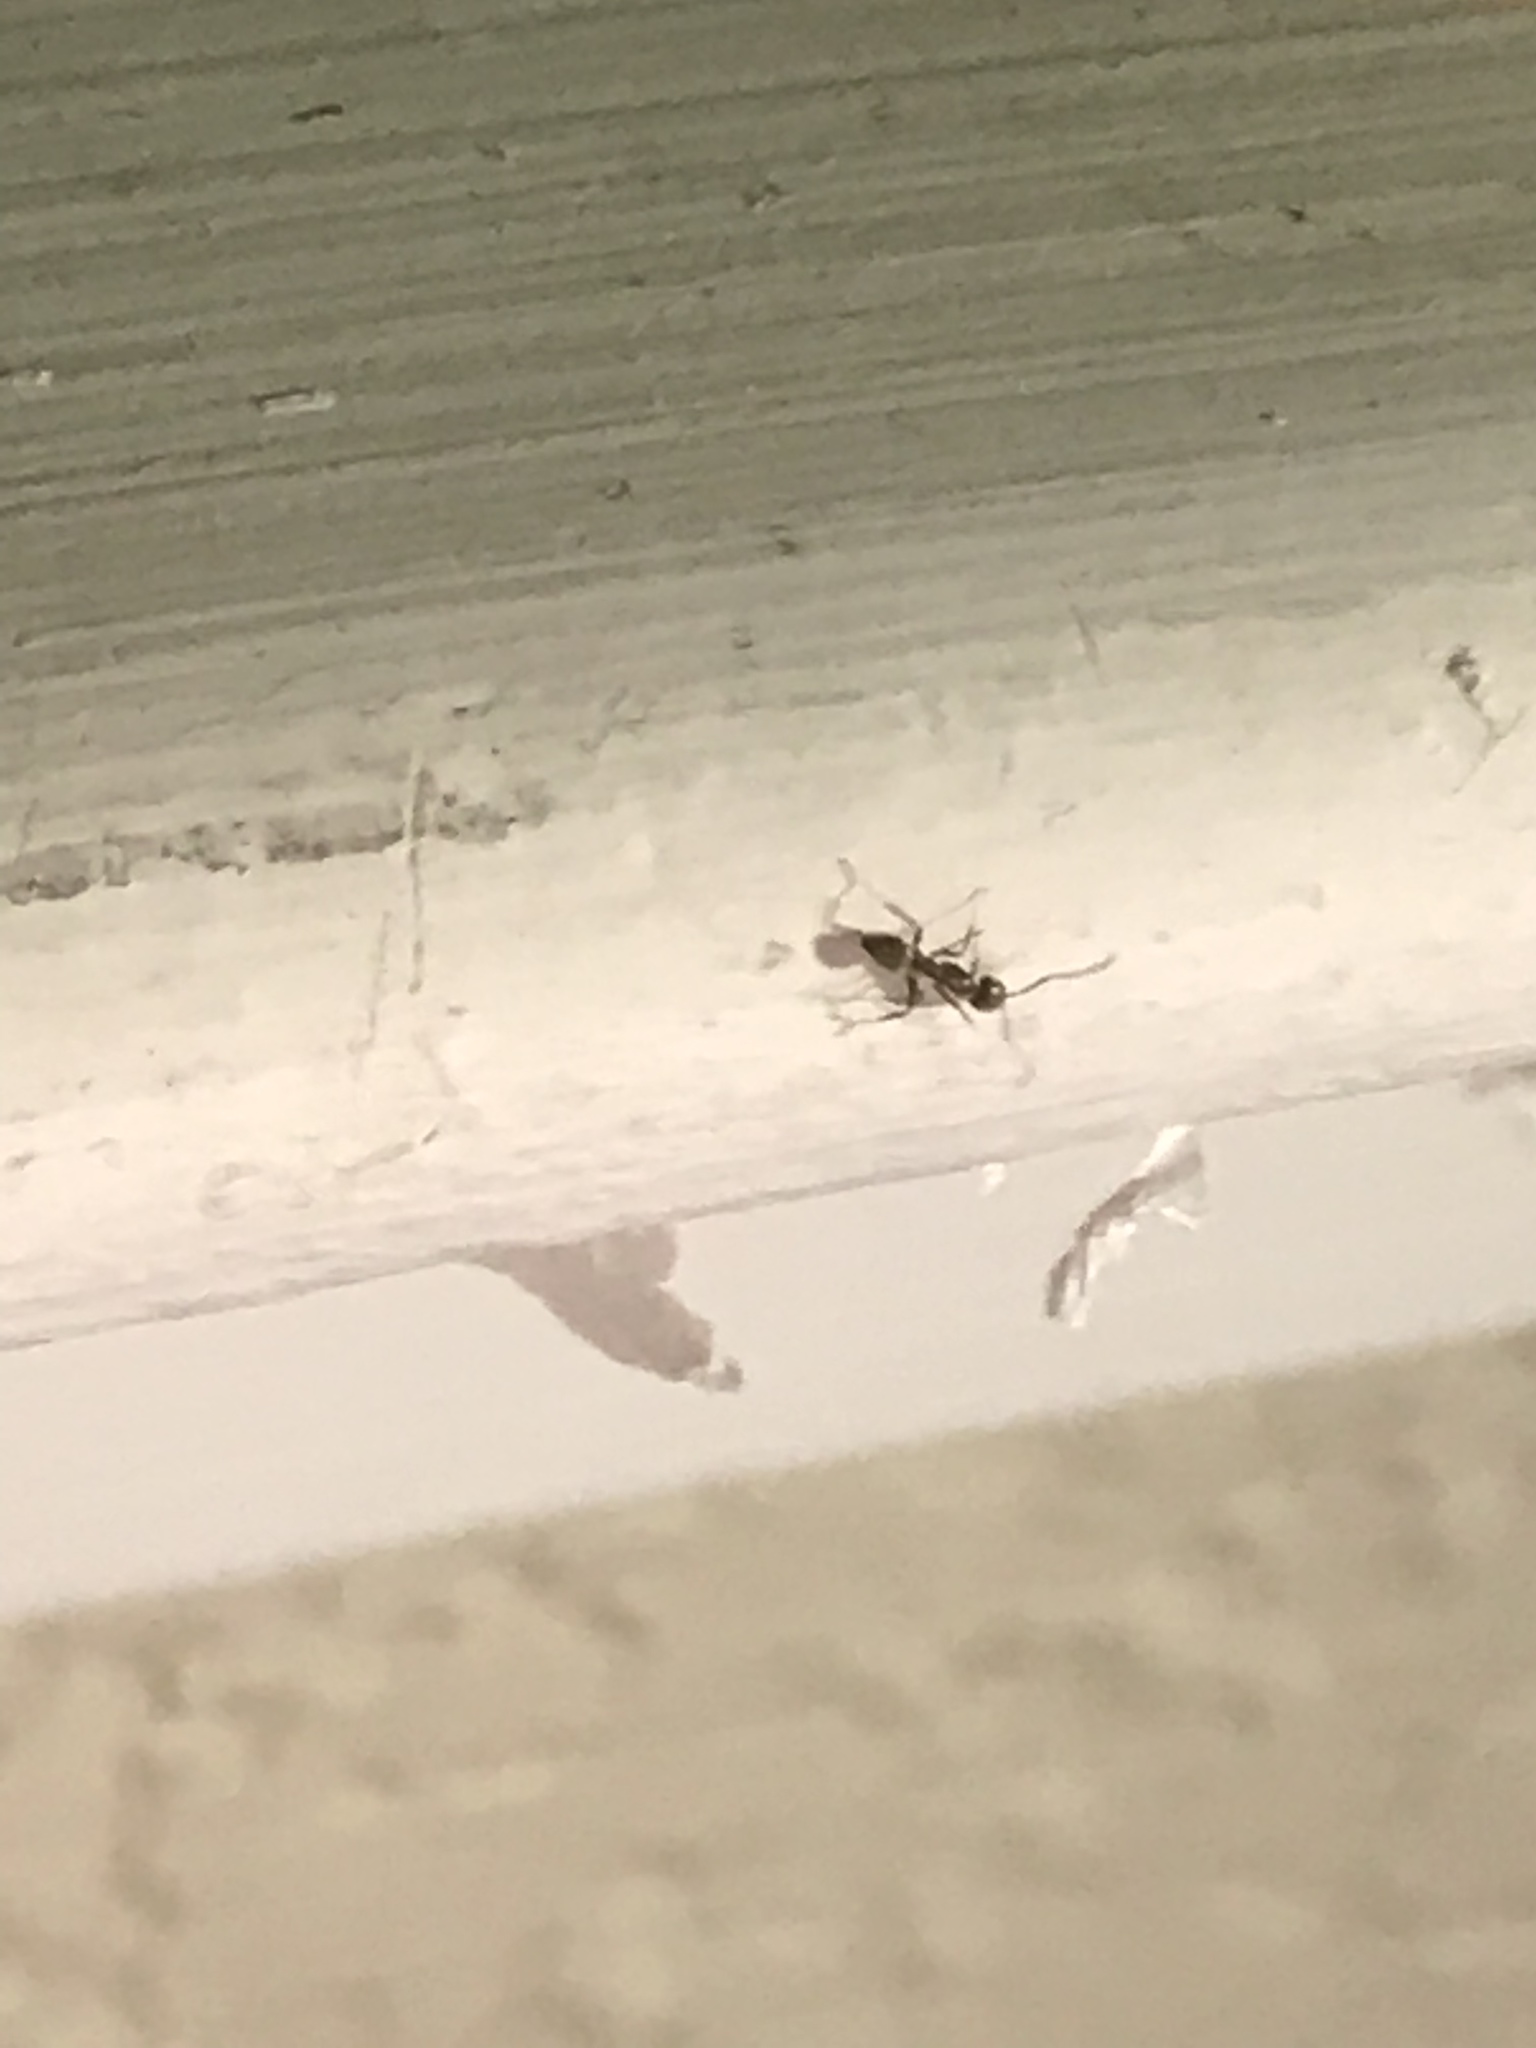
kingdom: Animalia
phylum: Arthropoda
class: Insecta
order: Hymenoptera
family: Formicidae
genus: Linepithema
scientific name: Linepithema humile
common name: Argentine ant
